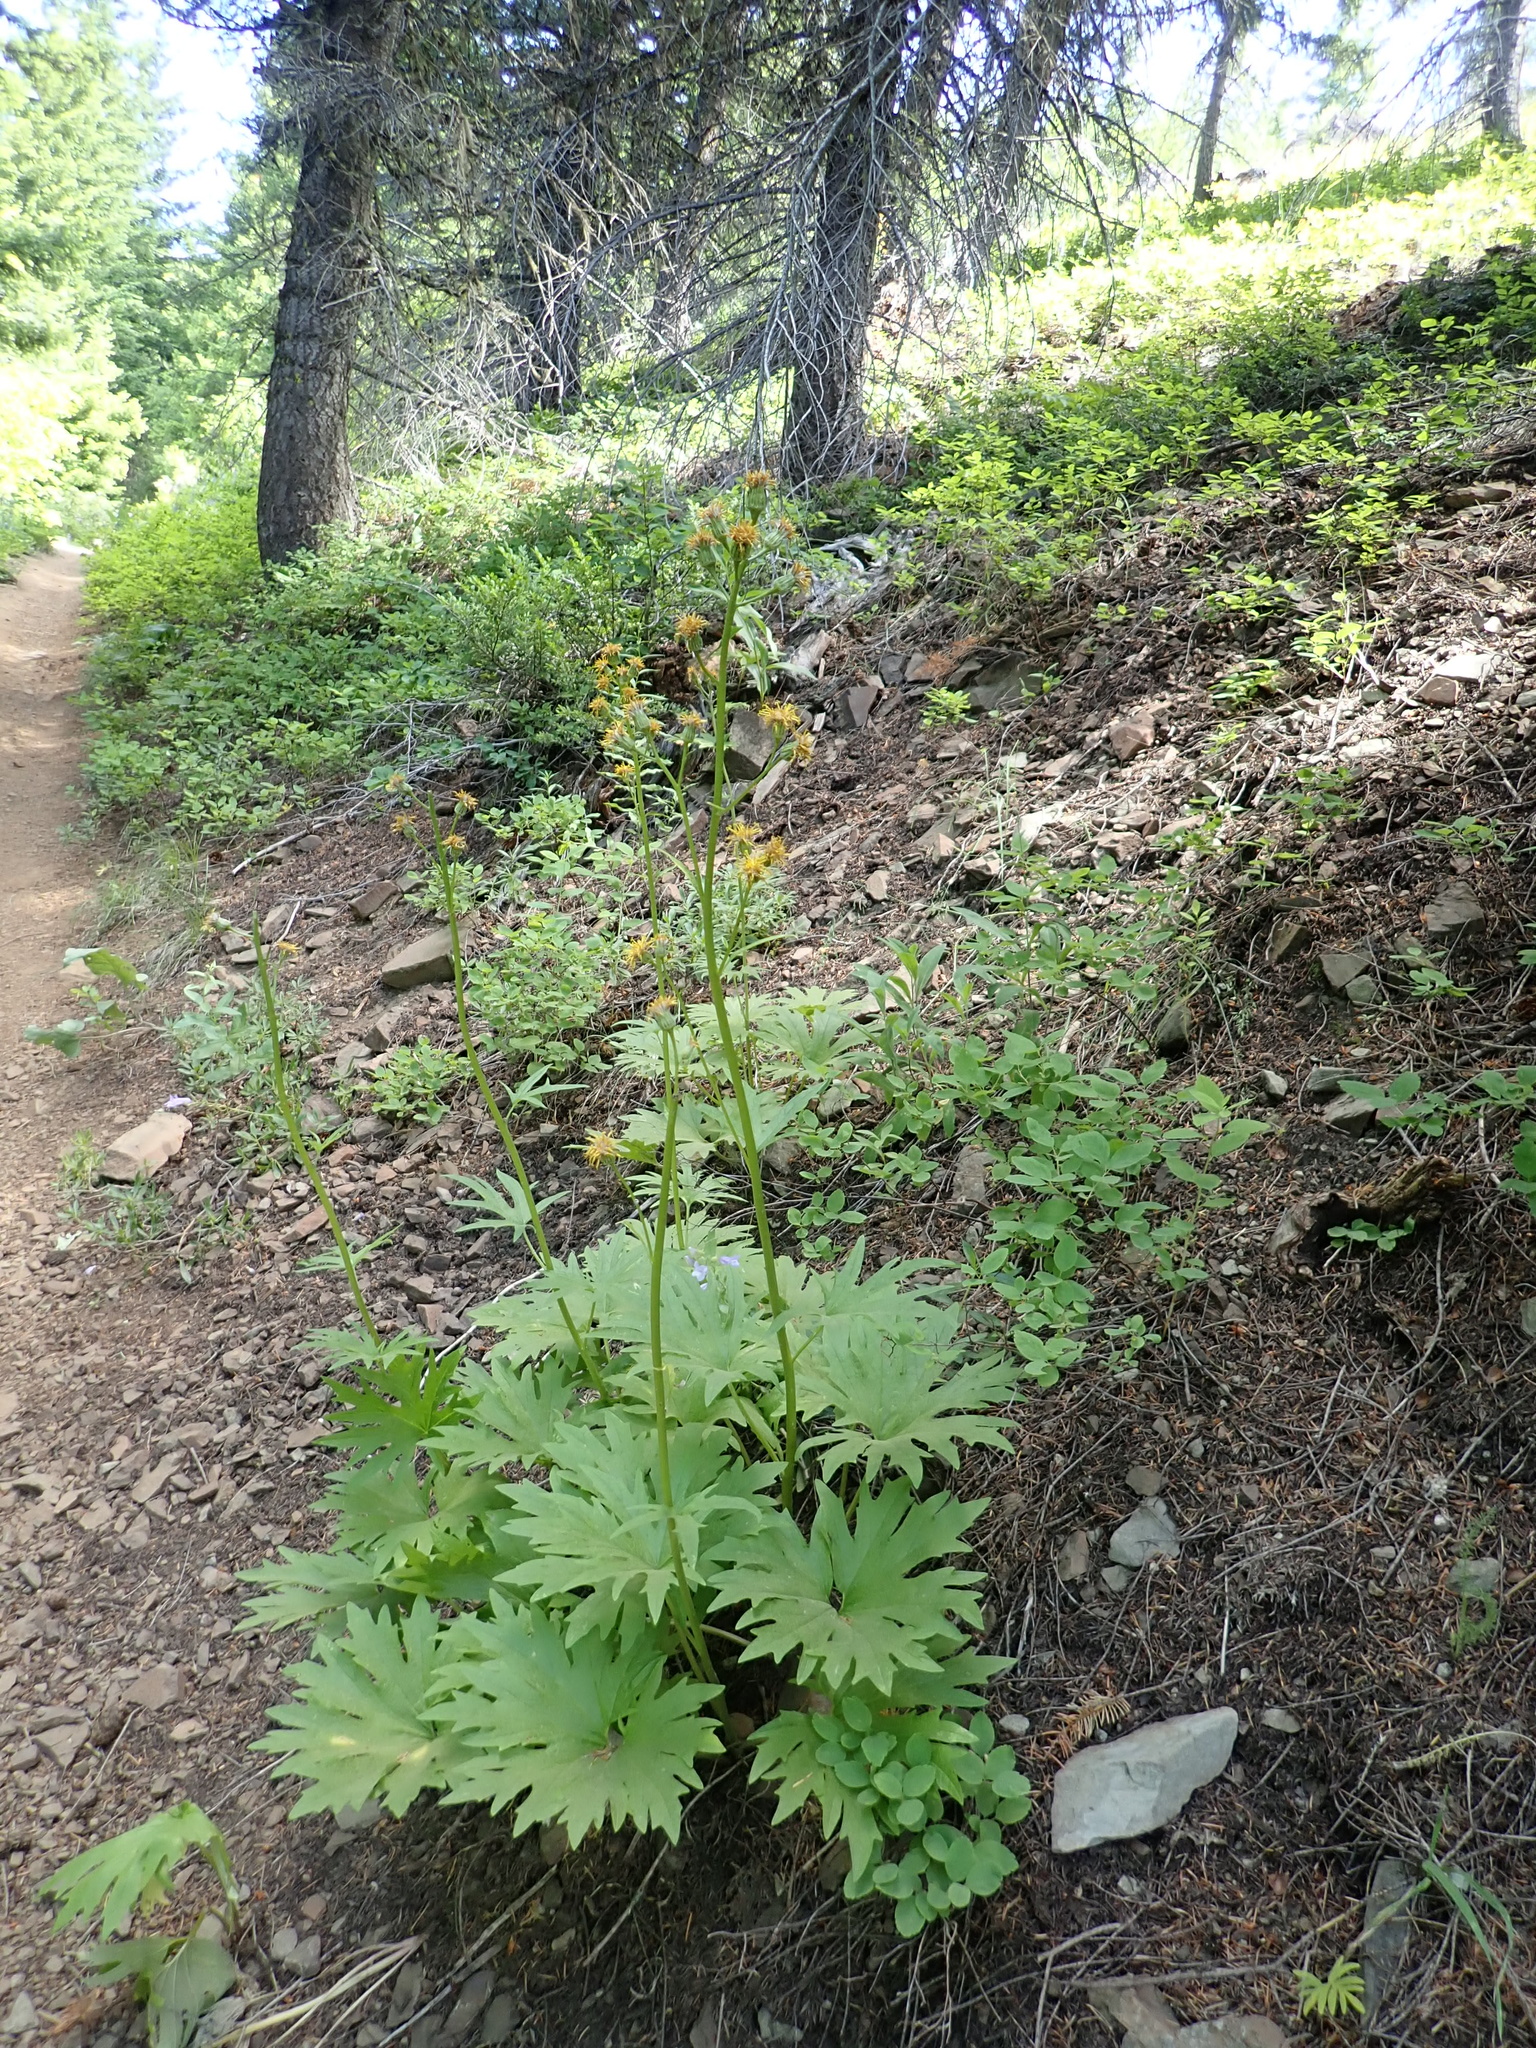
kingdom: Plantae
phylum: Tracheophyta
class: Magnoliopsida
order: Asterales
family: Asteraceae
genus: Cacaliopsis
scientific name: Cacaliopsis nardosmia
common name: Silvercrown
